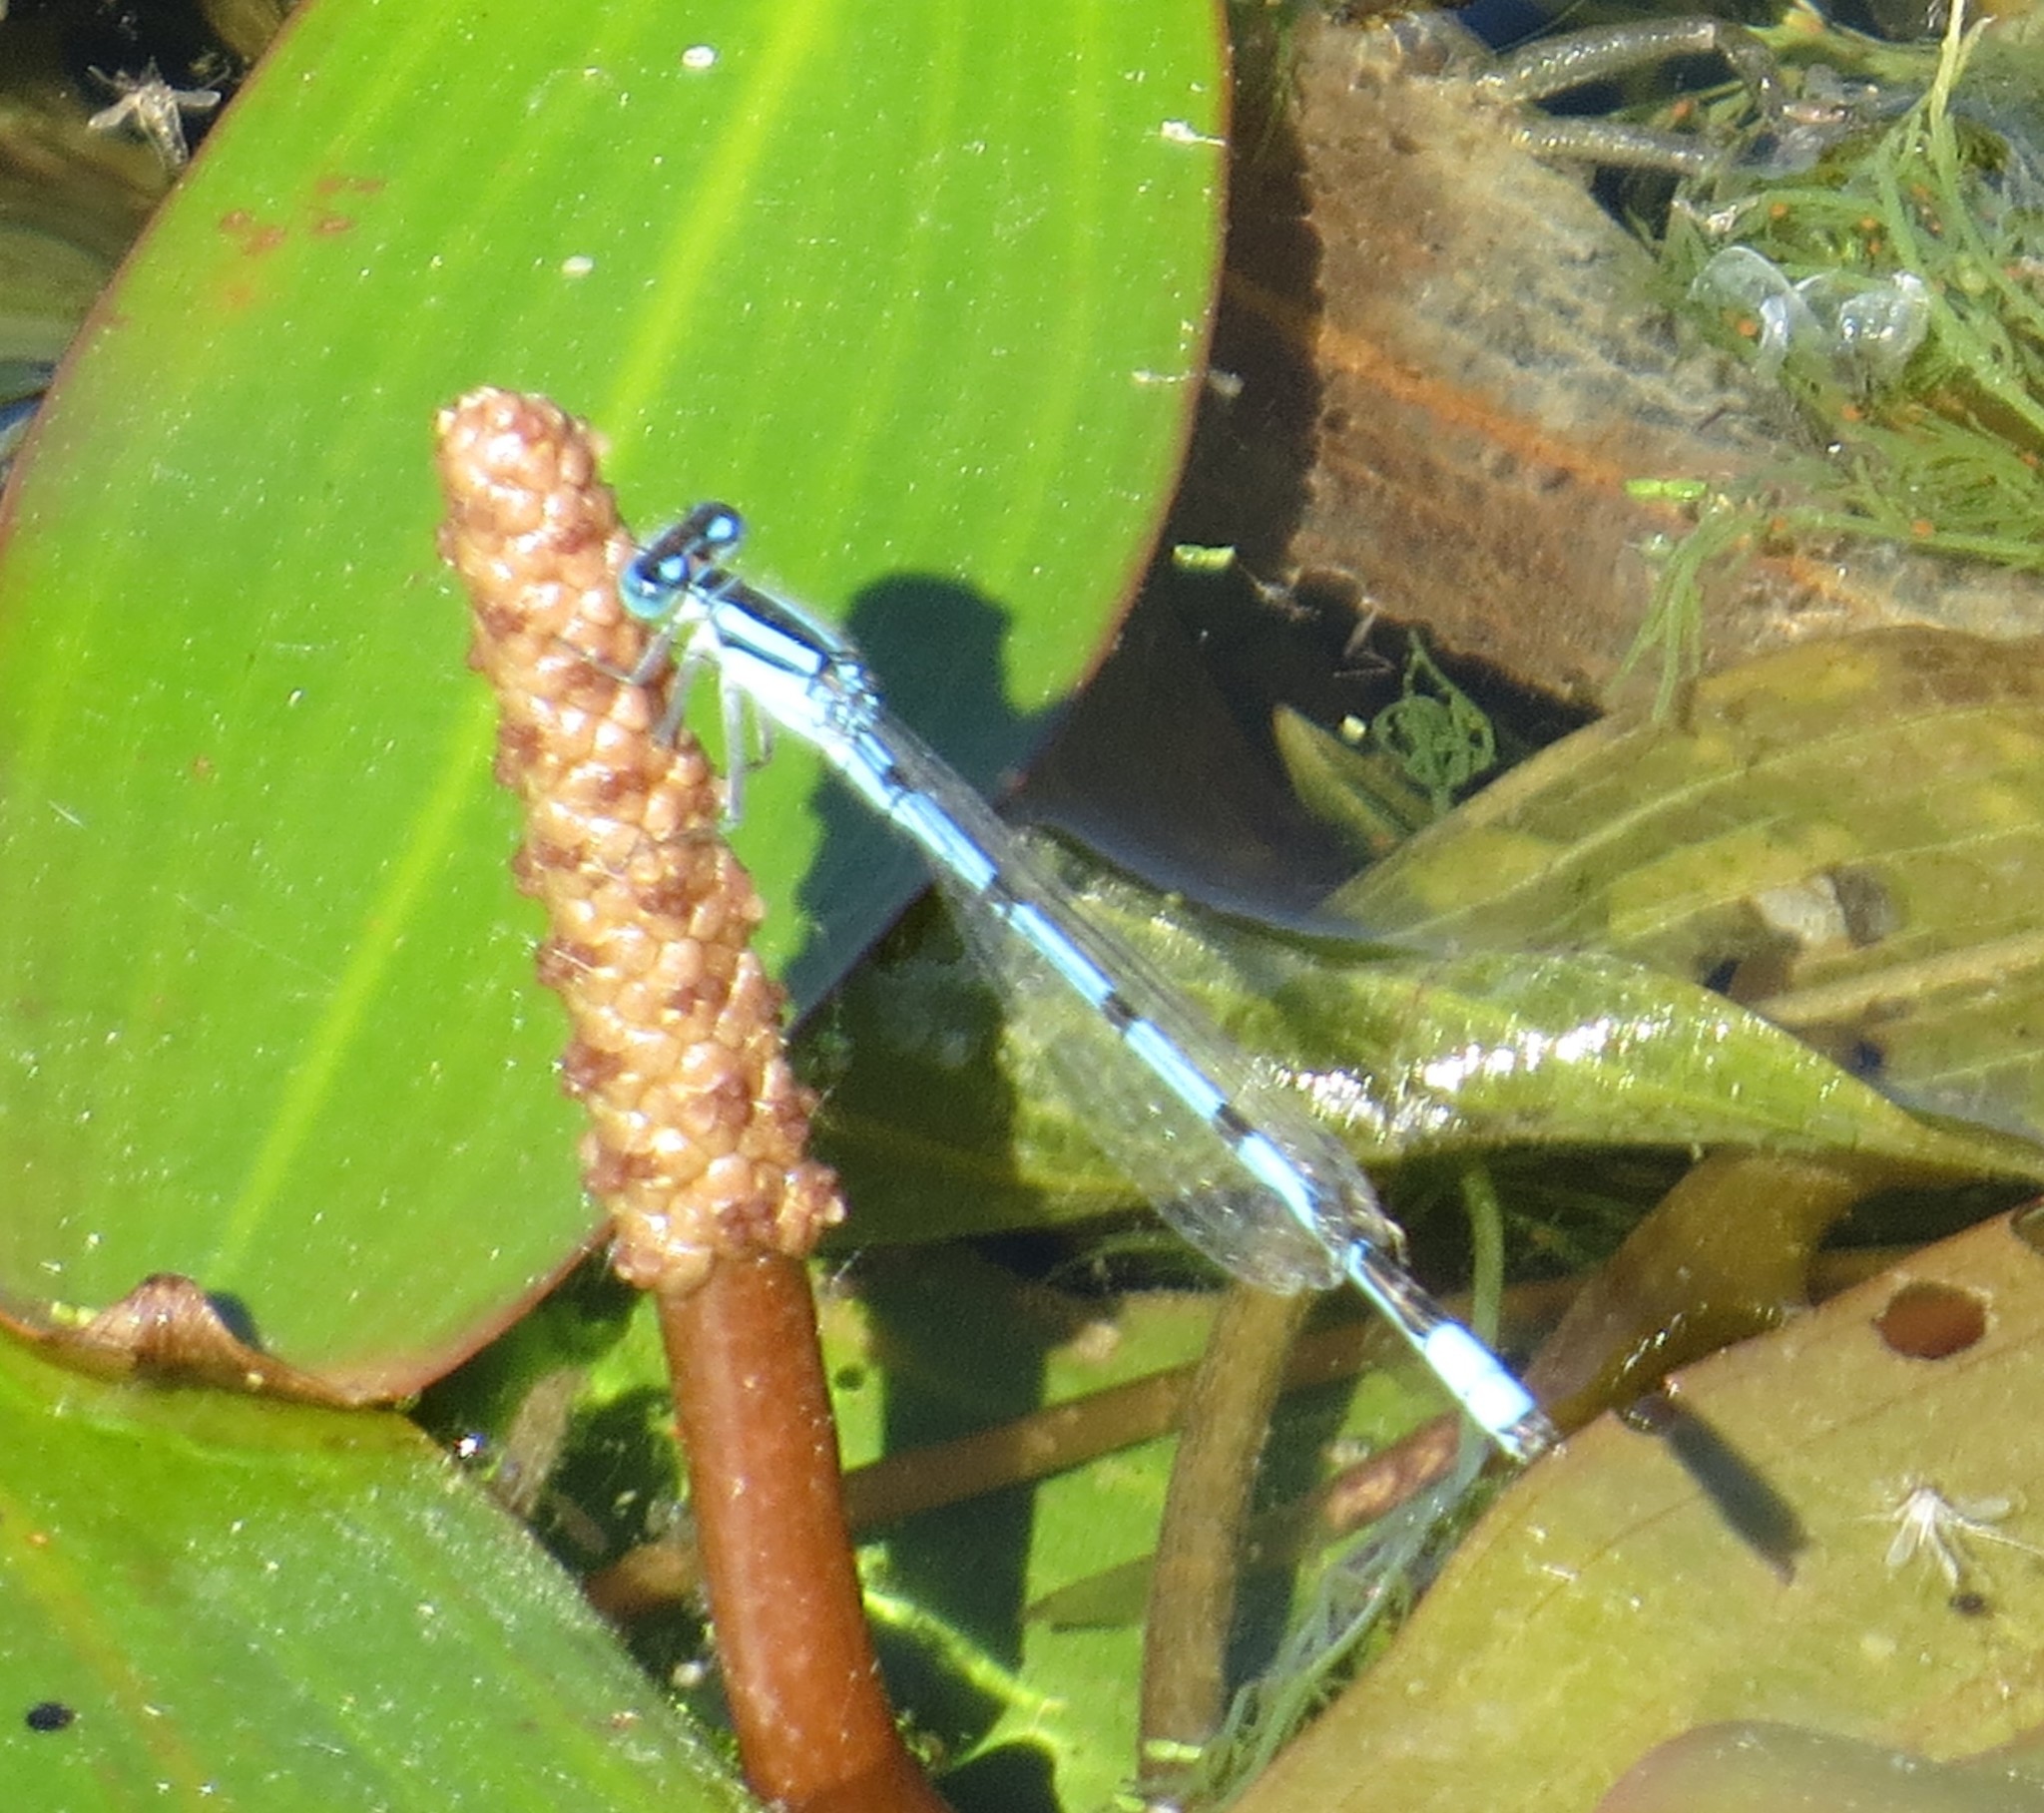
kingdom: Animalia
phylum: Arthropoda
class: Insecta
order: Odonata
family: Coenagrionidae
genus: Enallagma
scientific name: Enallagma civile
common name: Damselfly
